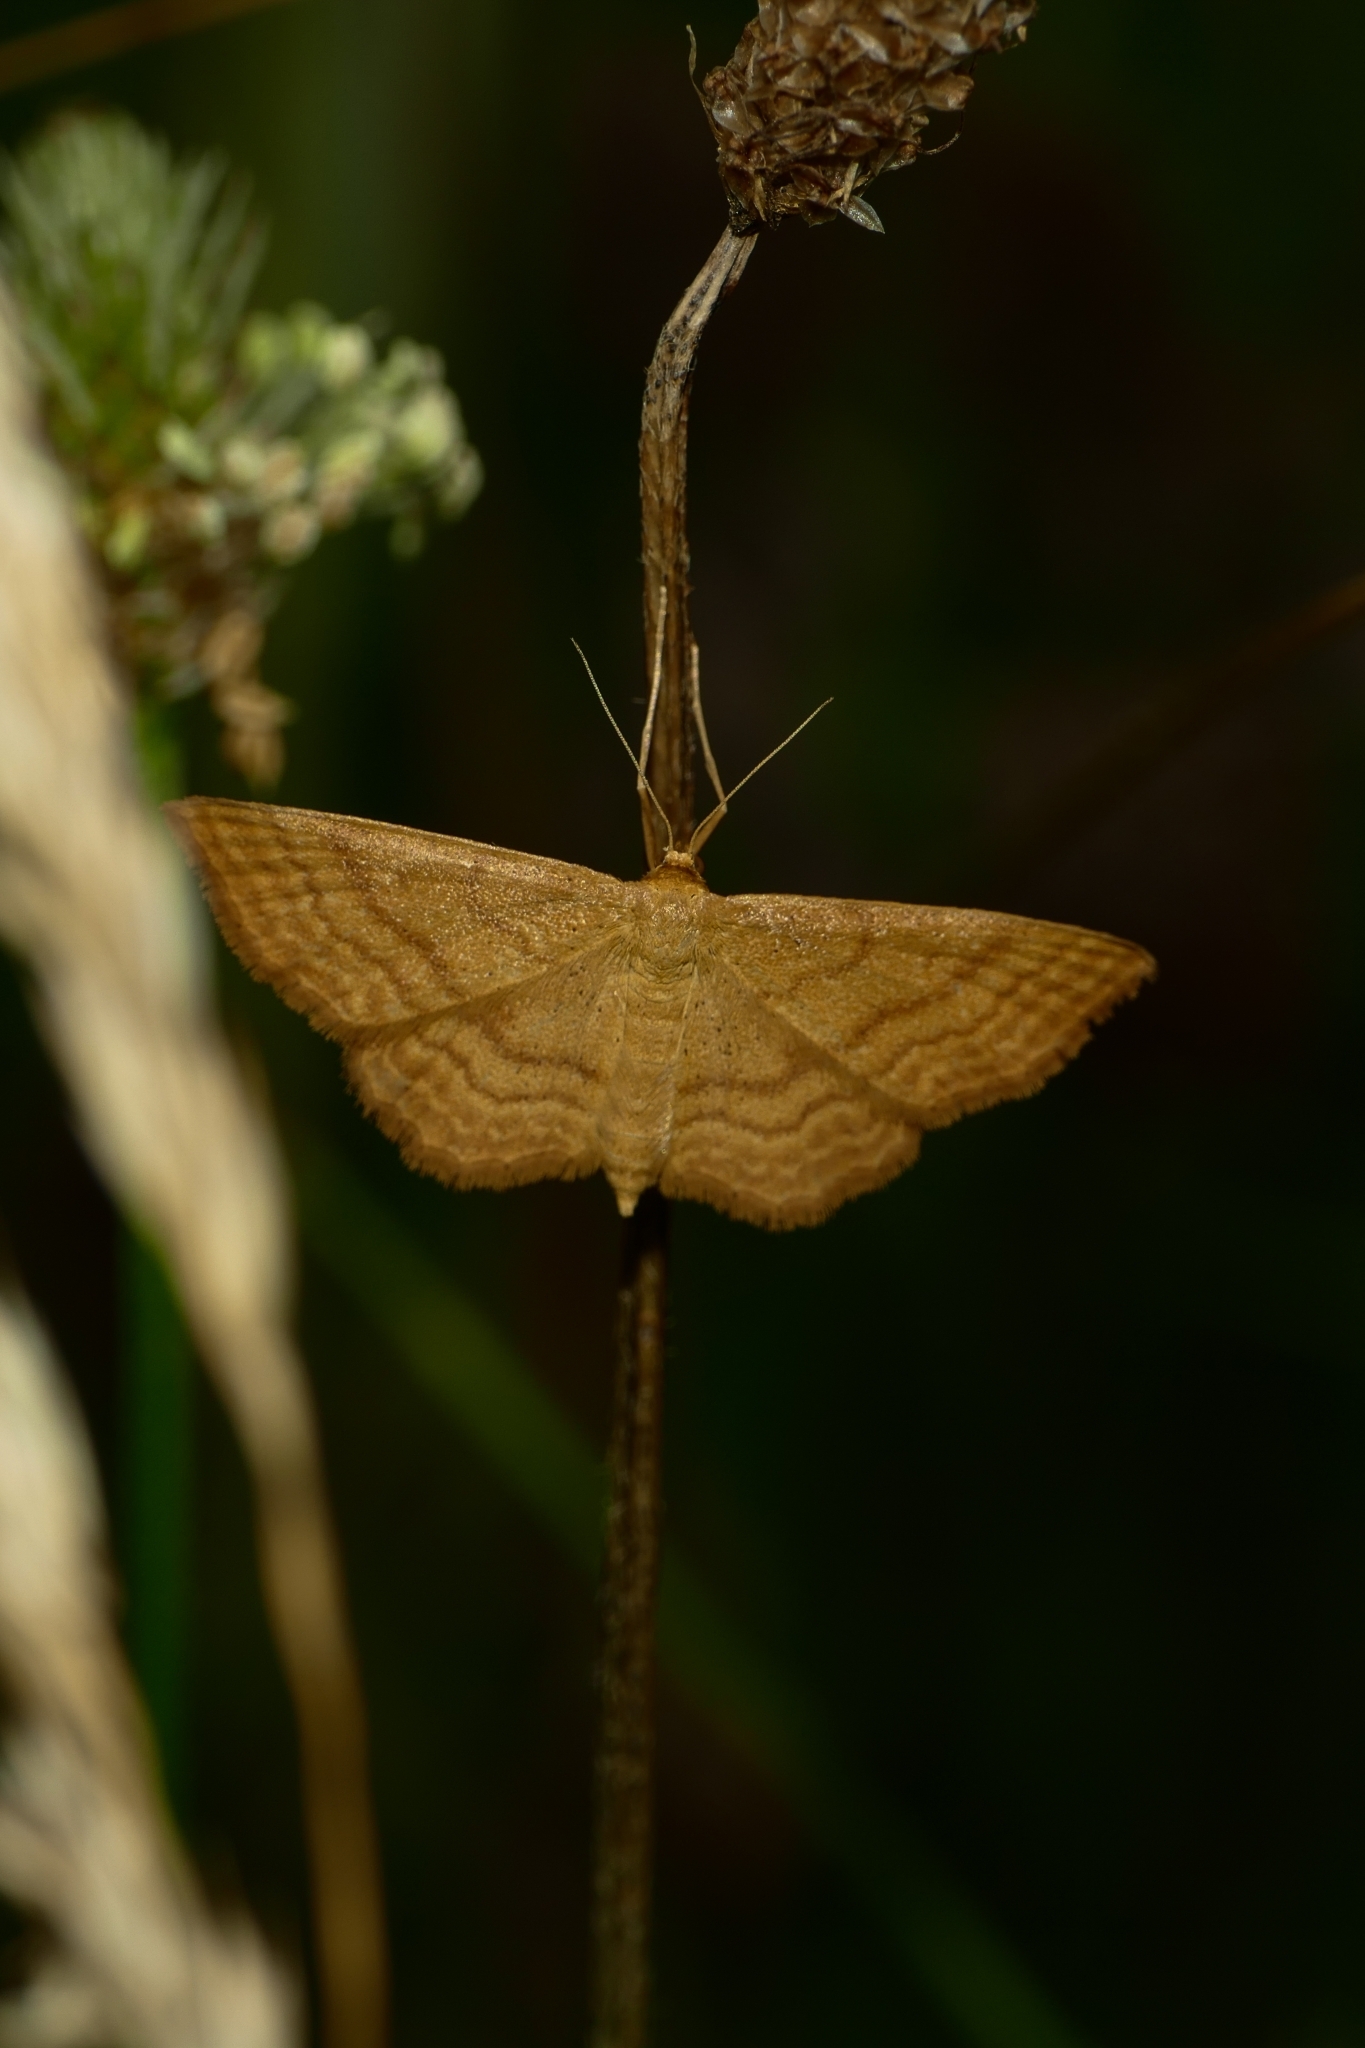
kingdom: Animalia
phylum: Arthropoda
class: Insecta
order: Lepidoptera
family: Geometridae
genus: Idaea
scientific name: Idaea ochrata
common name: Bright wave
